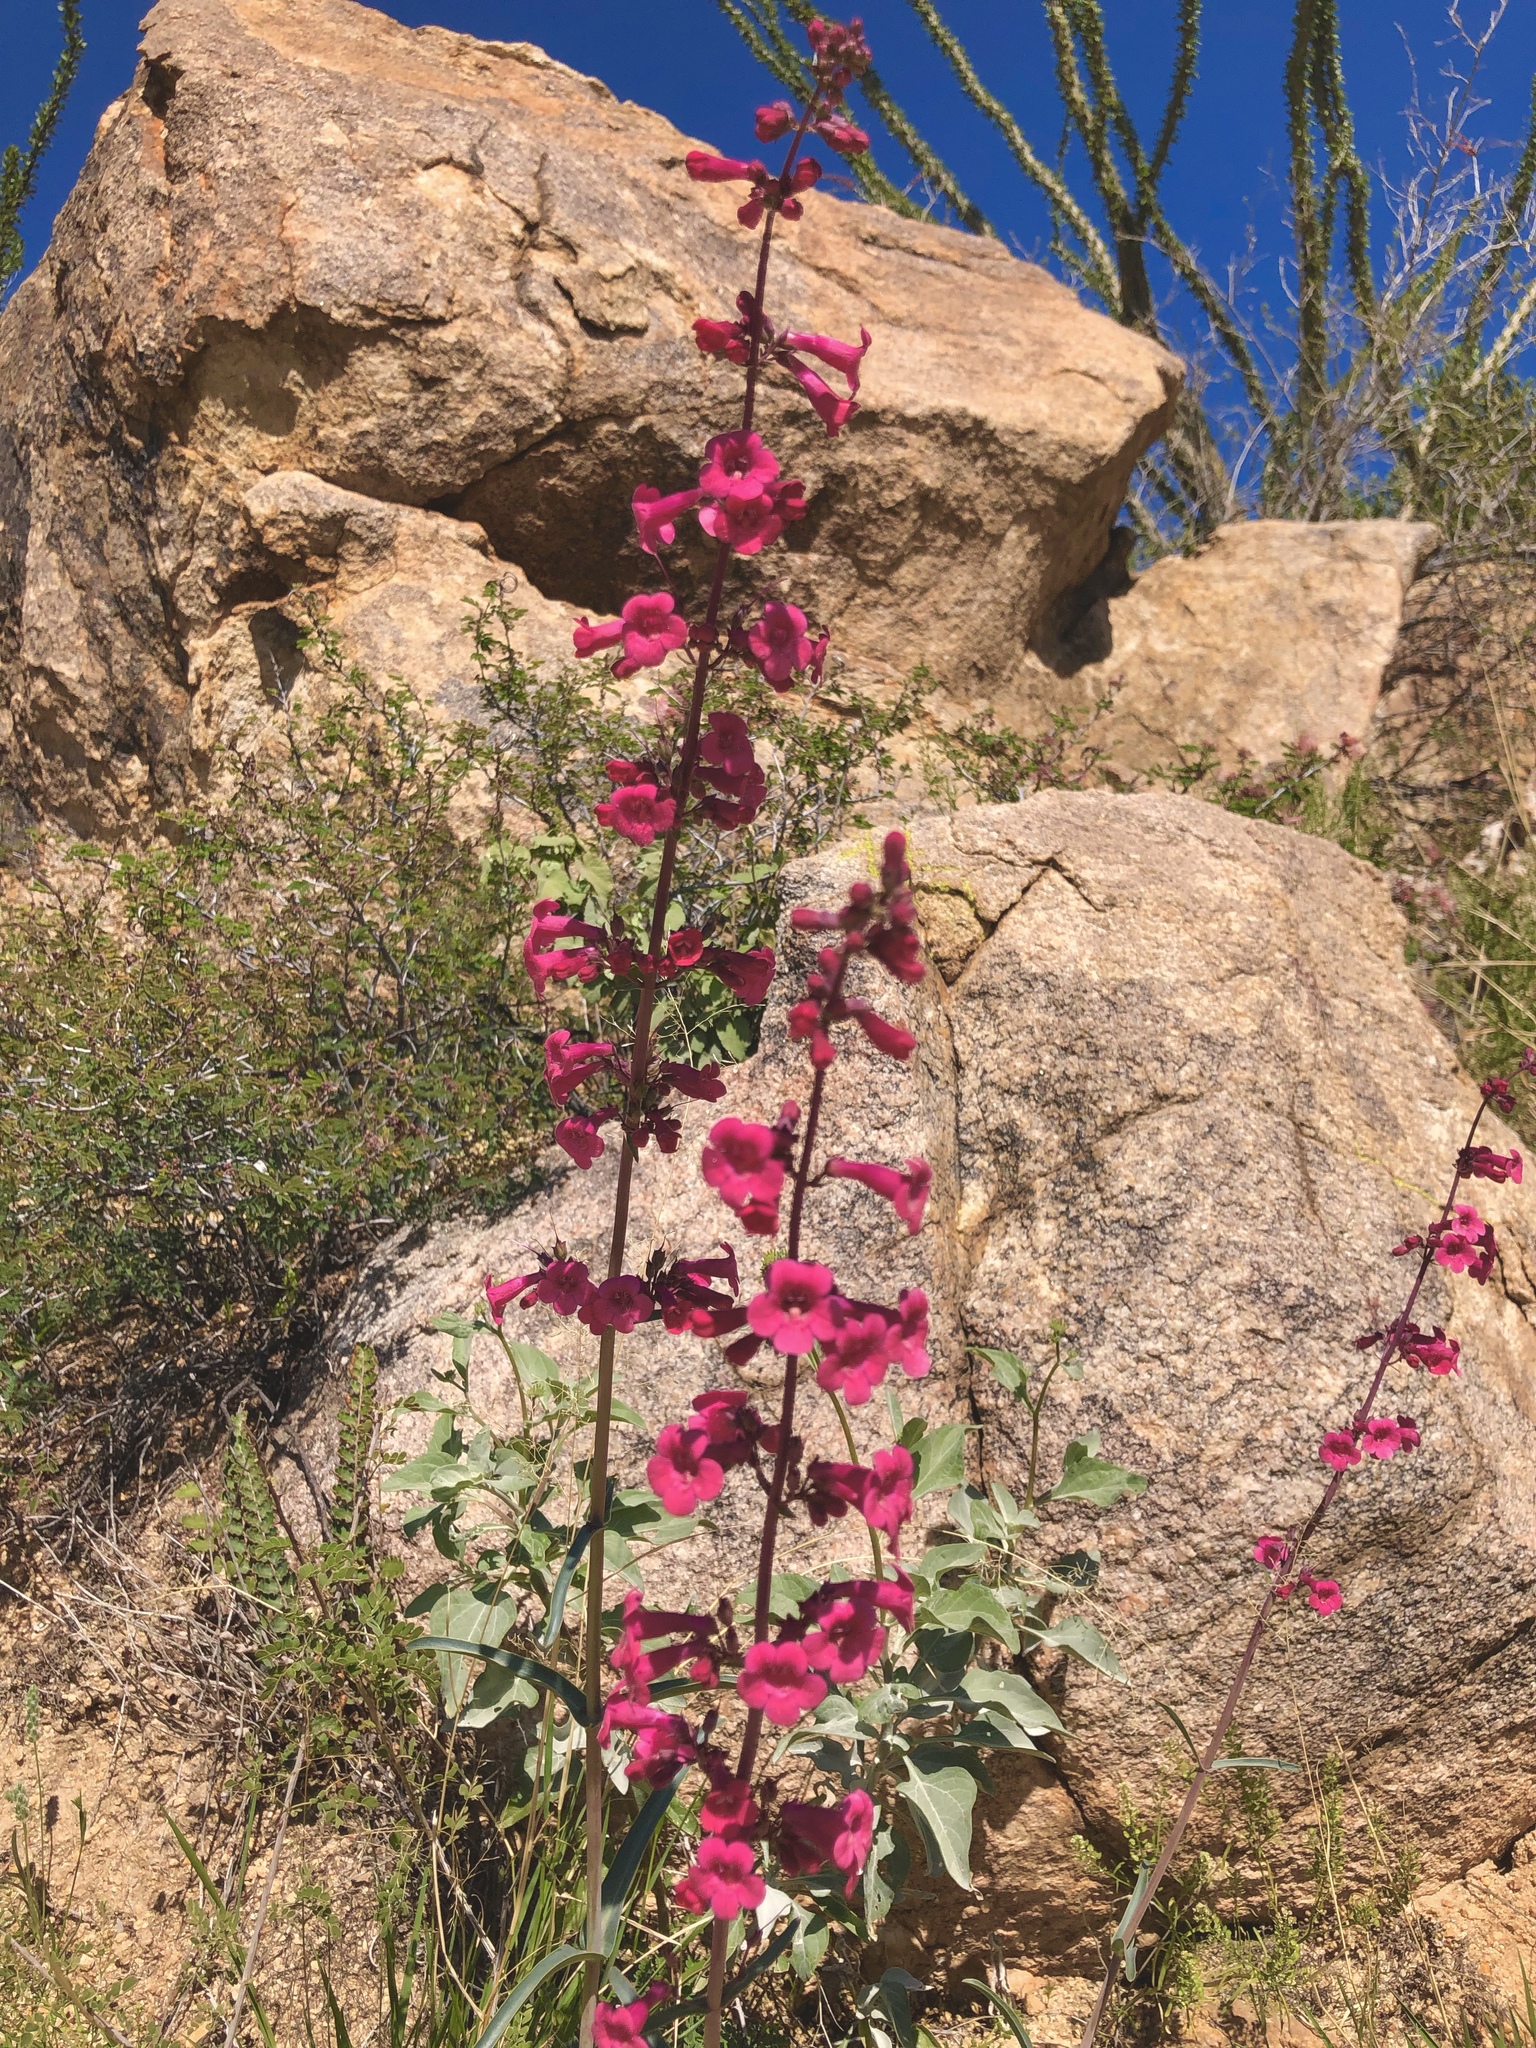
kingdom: Plantae
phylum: Tracheophyta
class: Magnoliopsida
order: Lamiales
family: Plantaginaceae
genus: Penstemon
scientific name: Penstemon parryi
